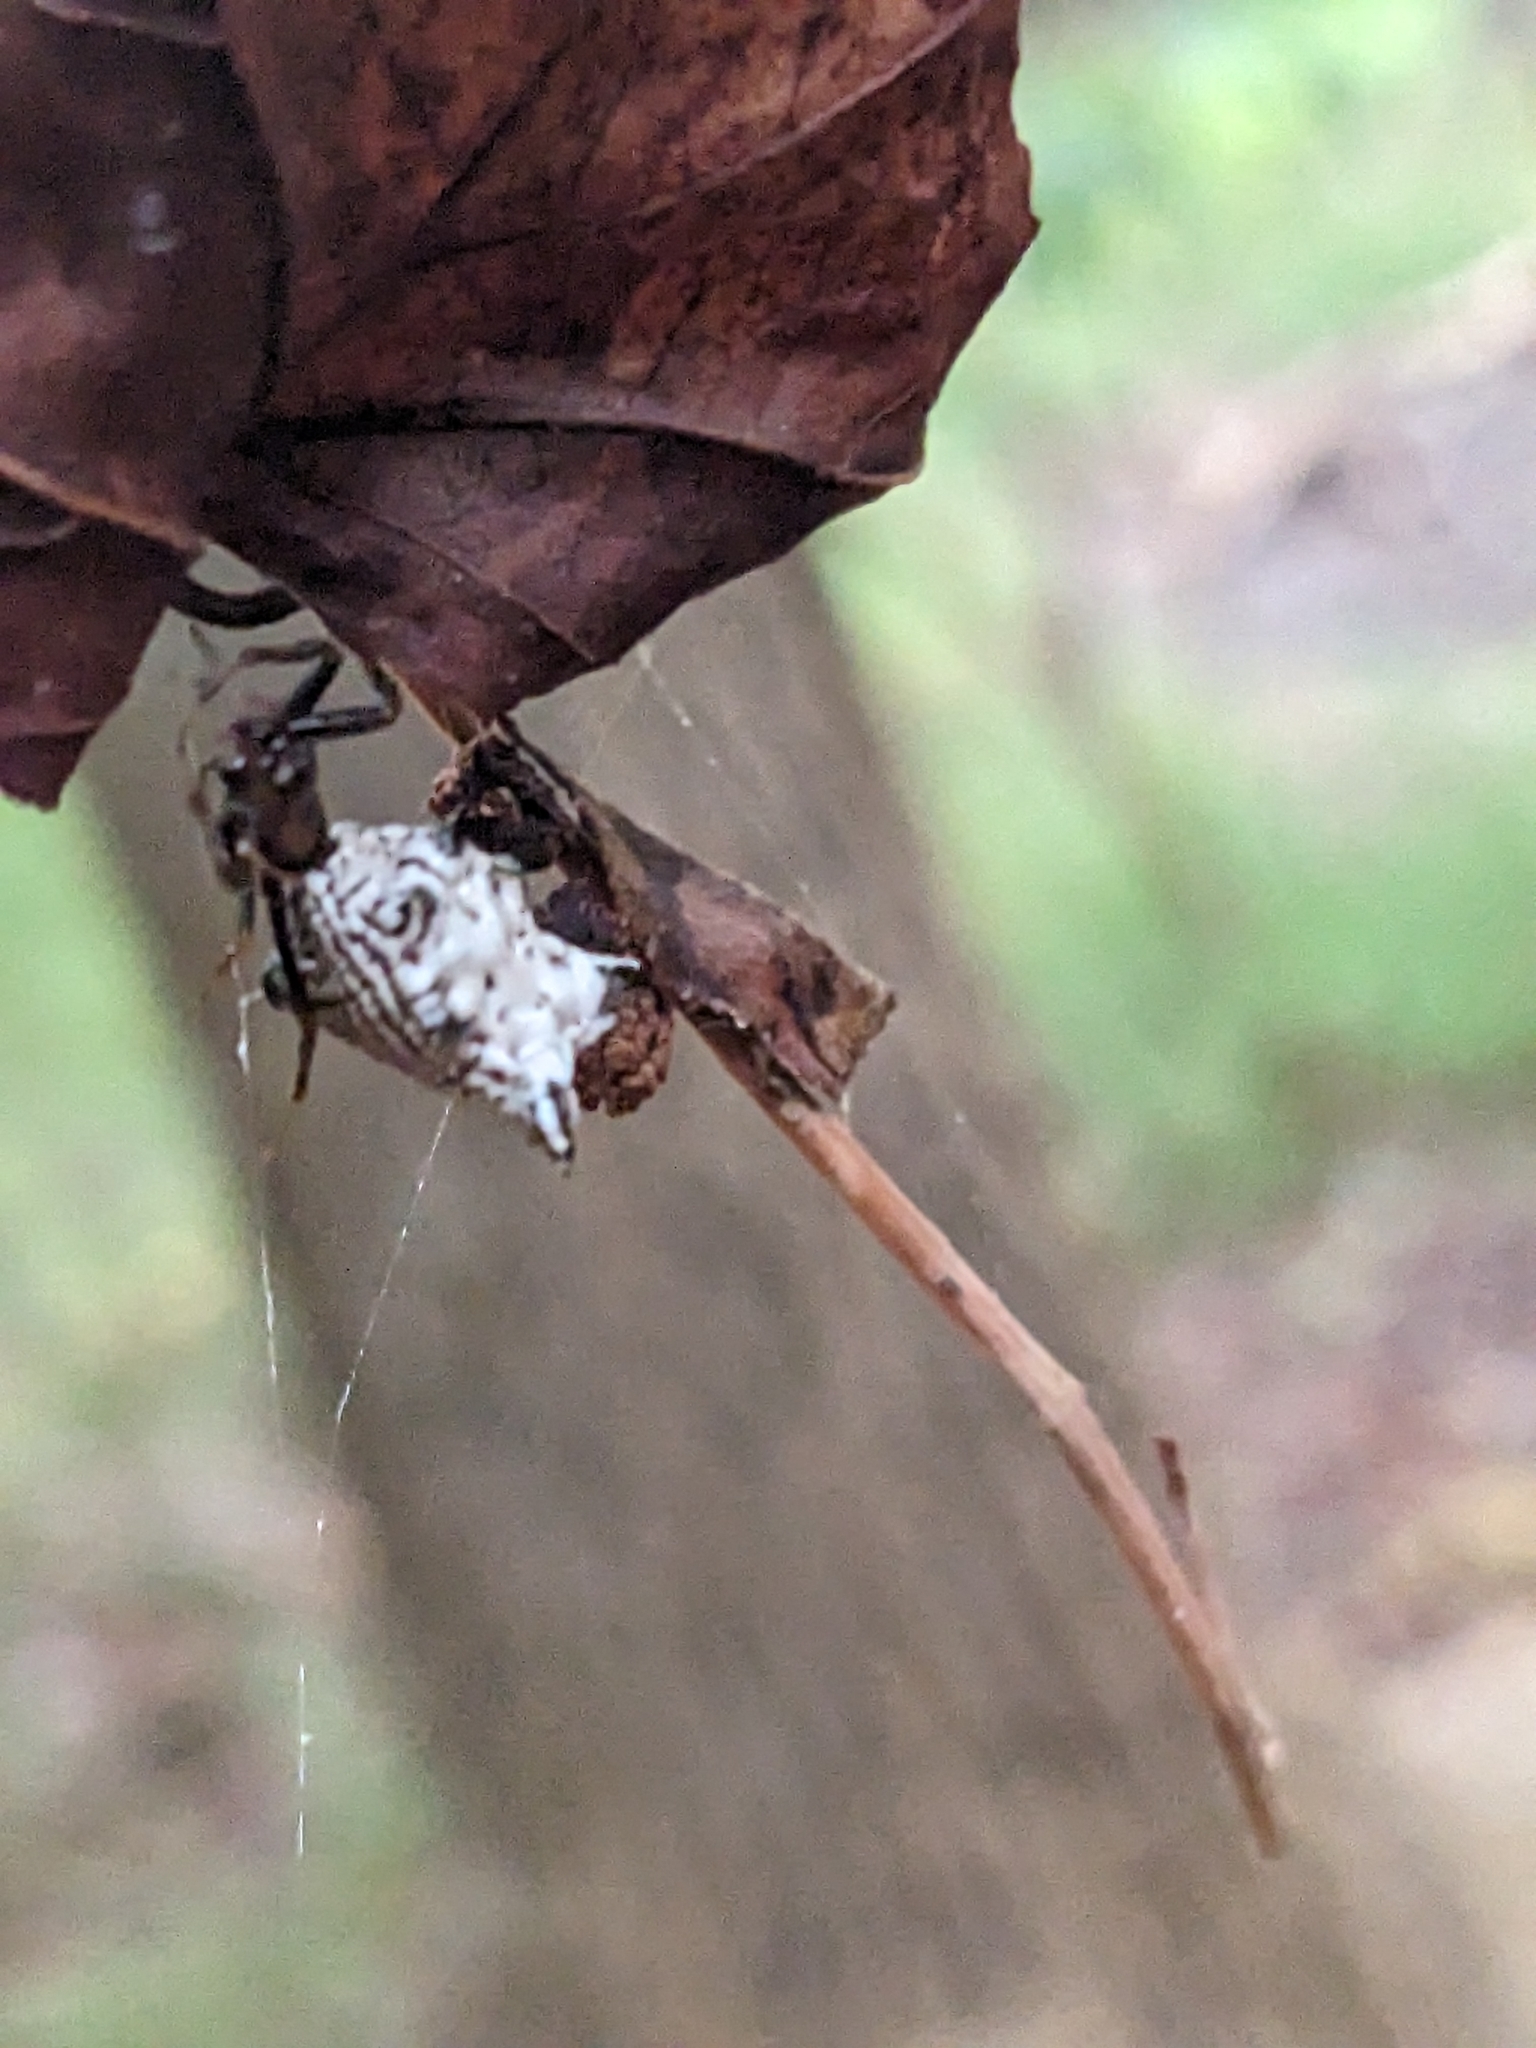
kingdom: Animalia
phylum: Arthropoda
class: Arachnida
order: Araneae
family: Araneidae
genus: Micrathena
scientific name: Micrathena gracilis
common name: Orb weavers
